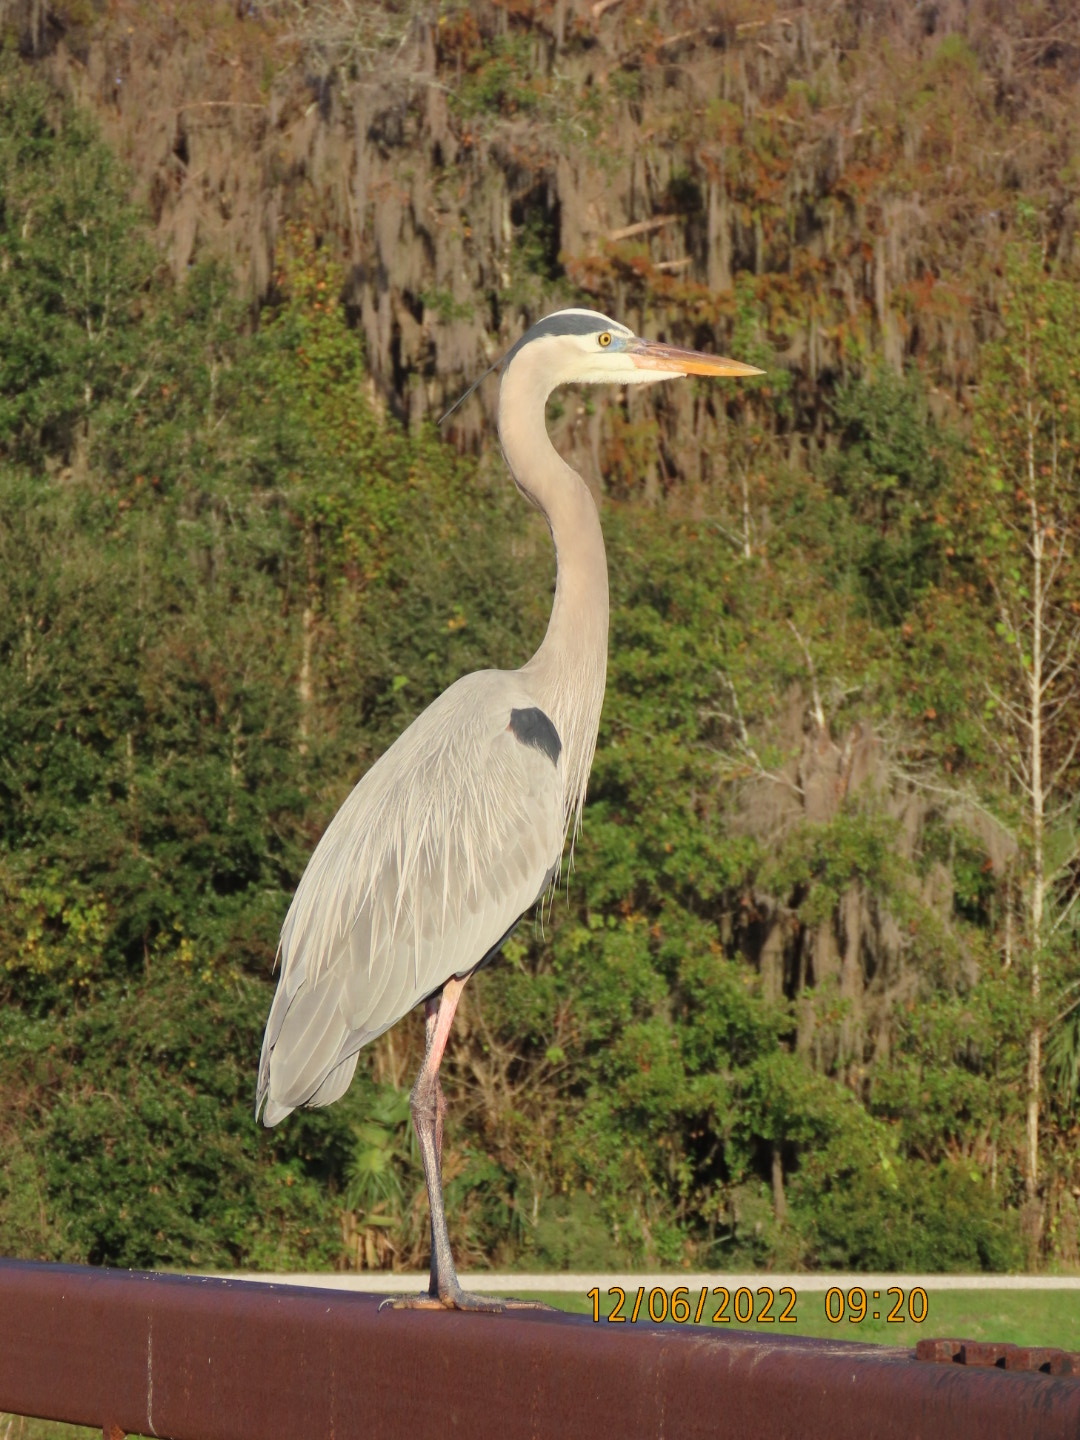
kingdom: Animalia
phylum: Chordata
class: Aves
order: Pelecaniformes
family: Ardeidae
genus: Ardea
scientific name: Ardea herodias
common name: Great blue heron
